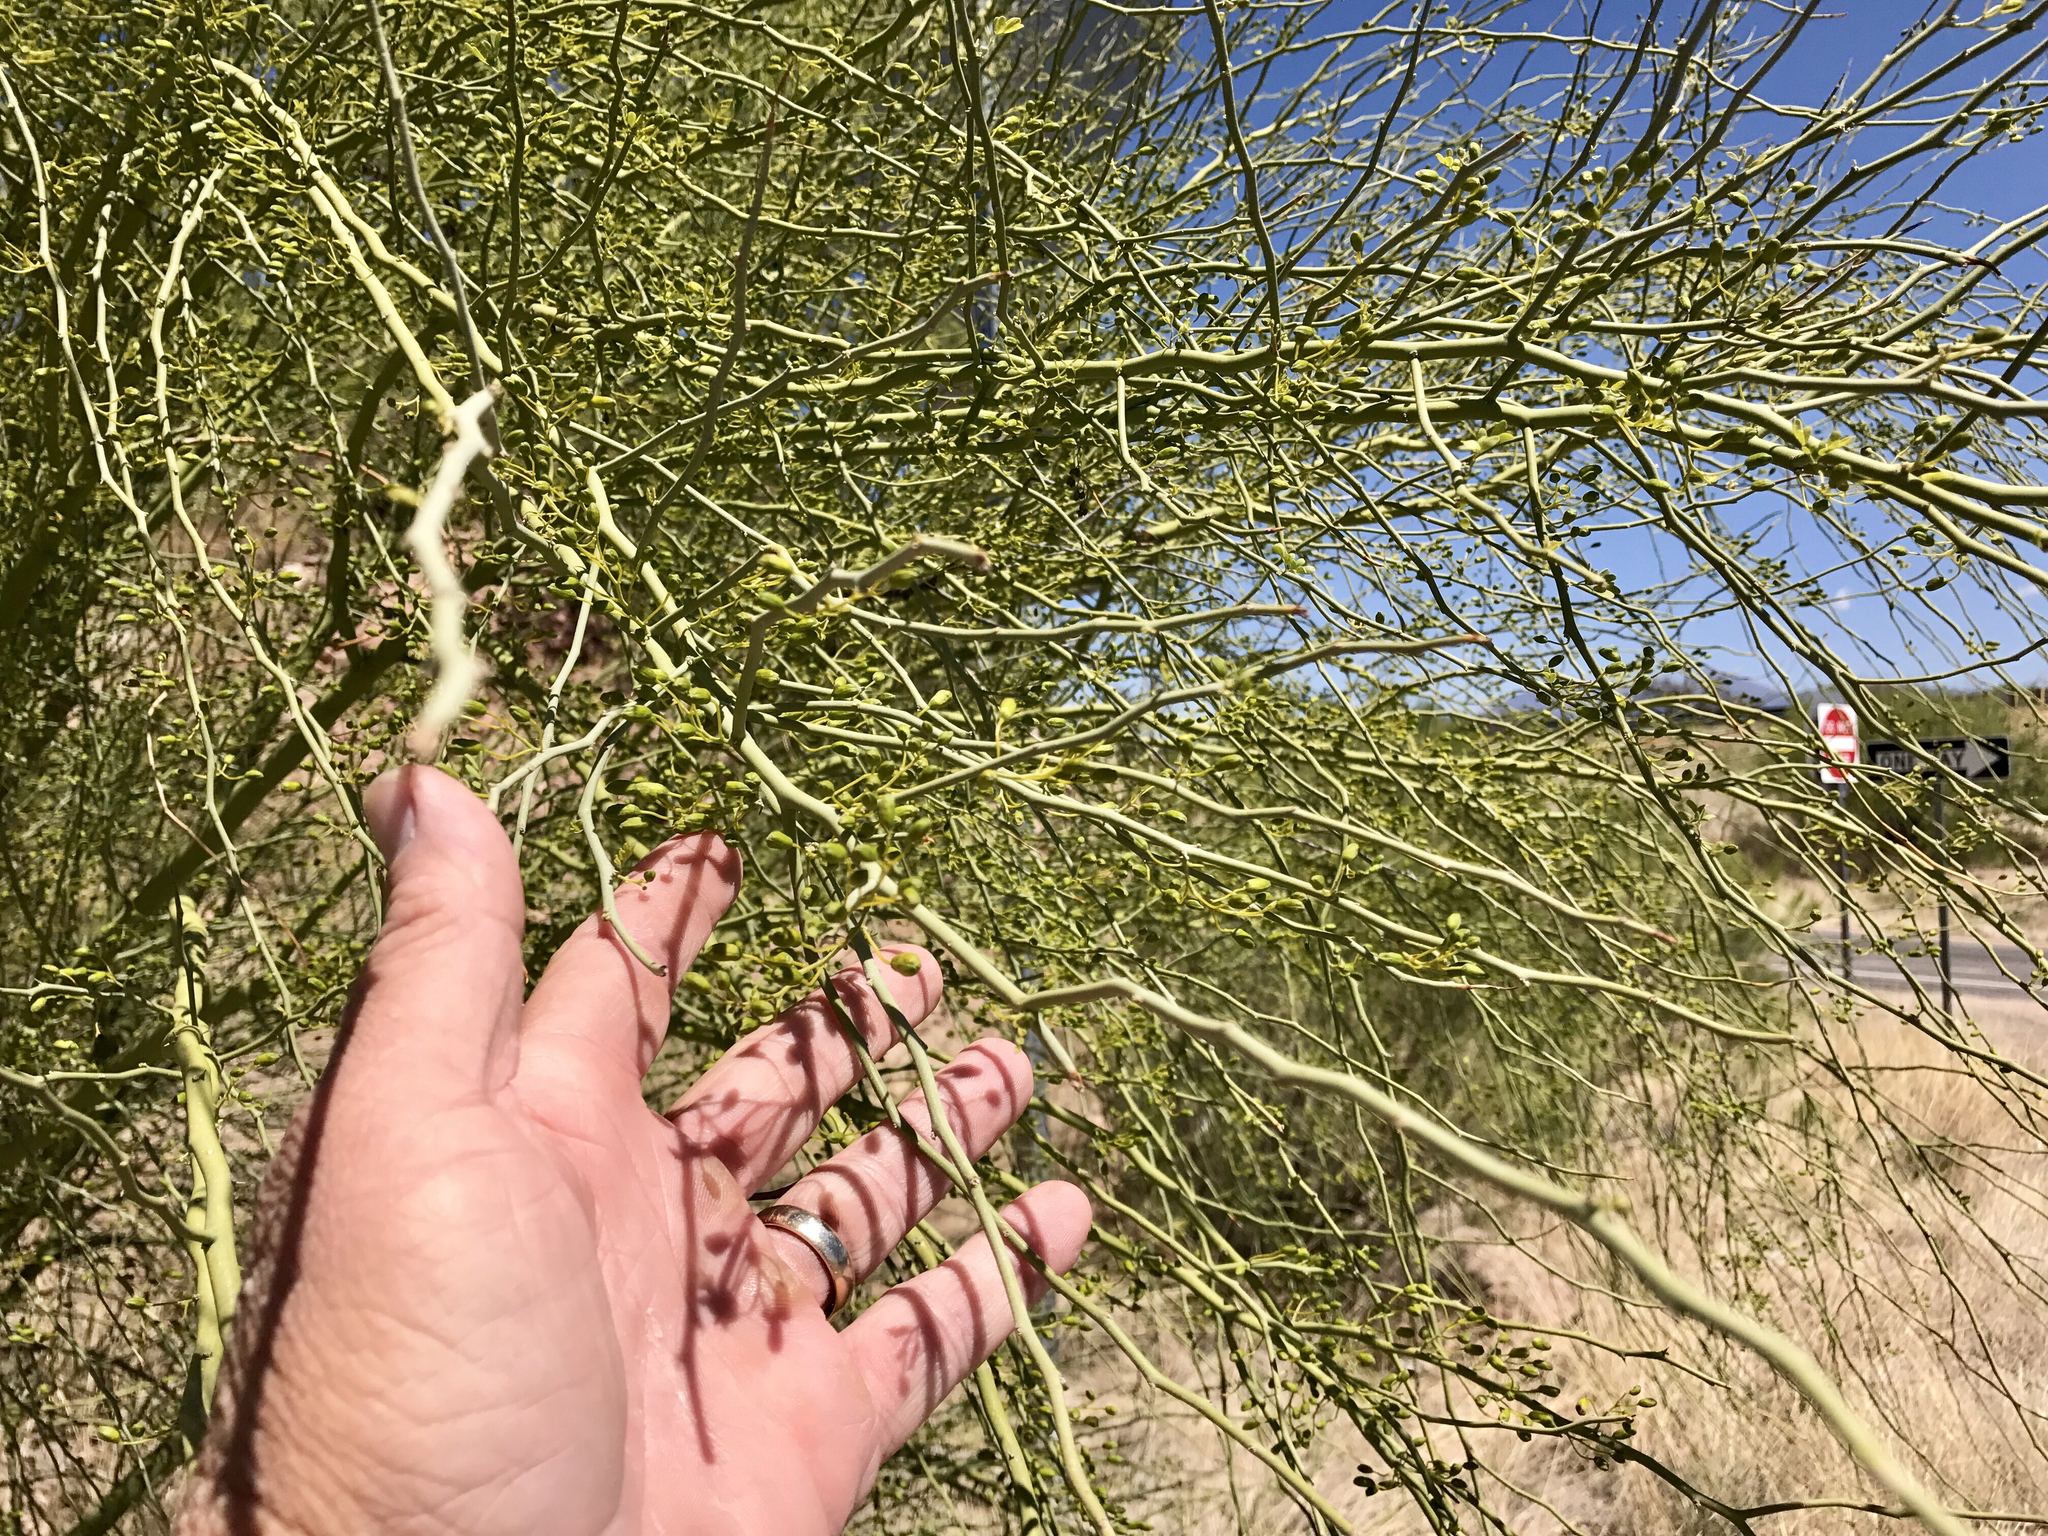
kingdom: Plantae
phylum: Tracheophyta
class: Magnoliopsida
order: Fabales
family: Fabaceae
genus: Parkinsonia
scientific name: Parkinsonia microphylla
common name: Yellow paloverde
